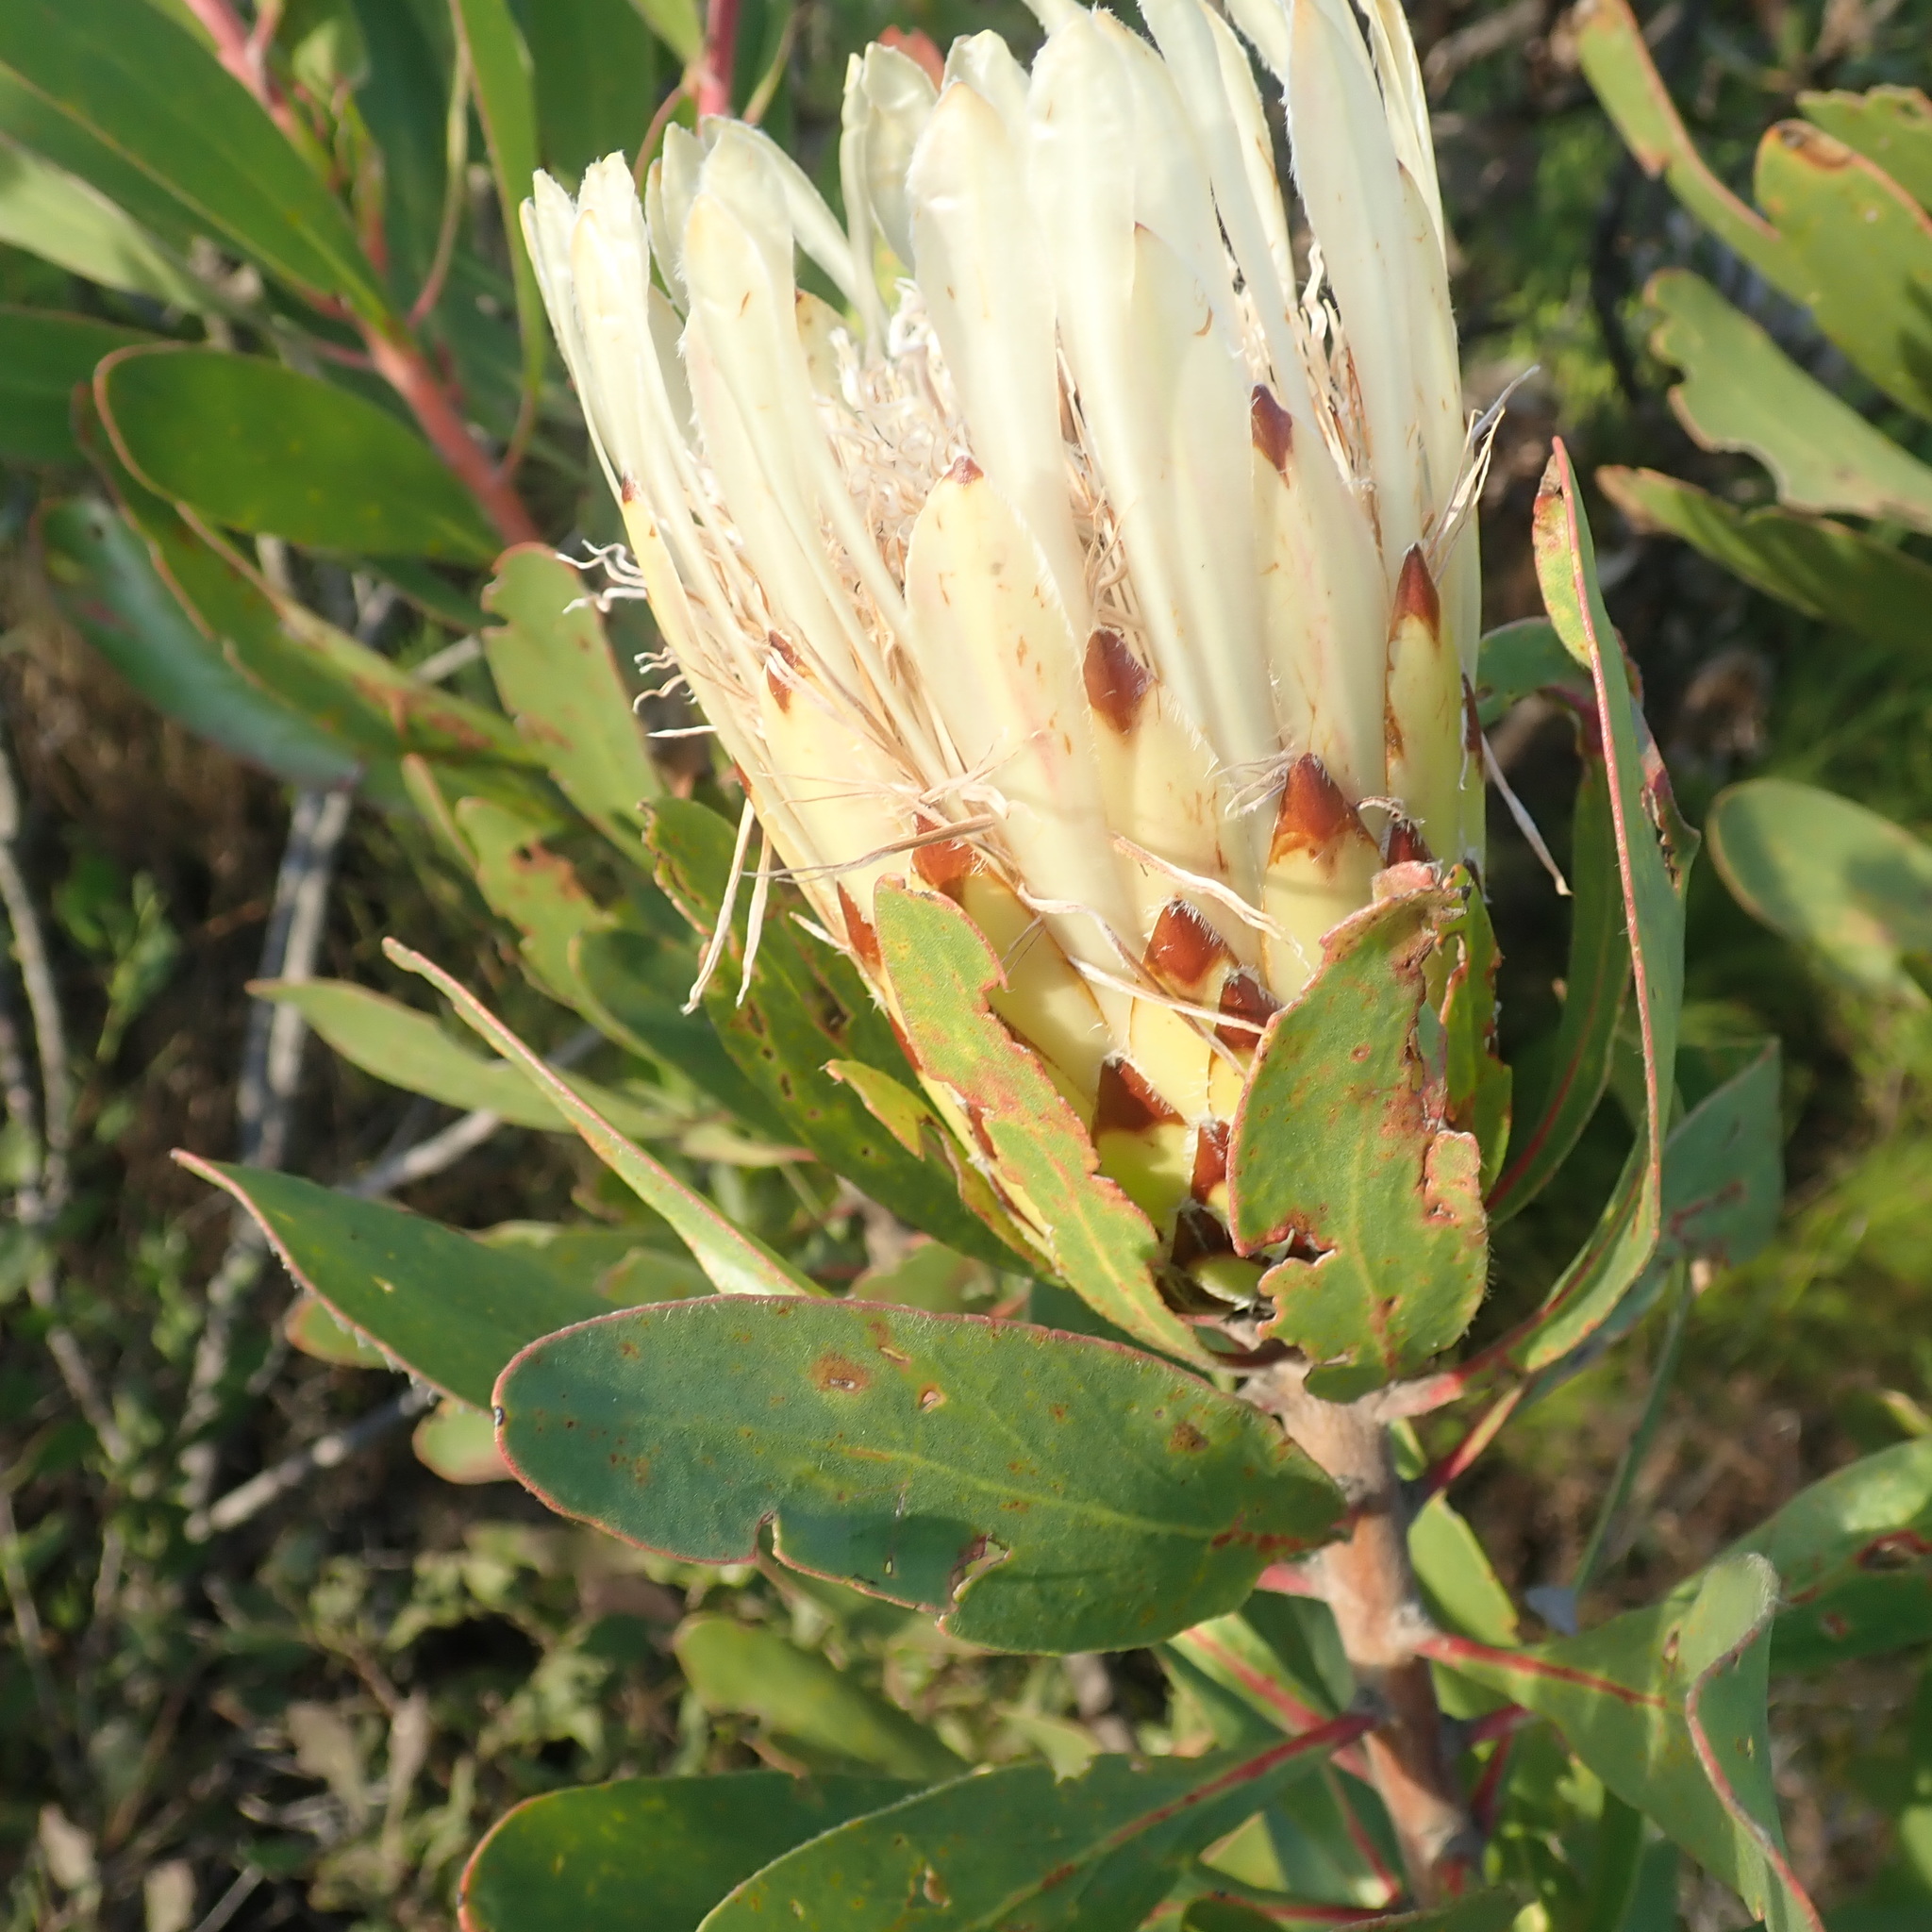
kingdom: Plantae
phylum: Tracheophyta
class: Magnoliopsida
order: Proteales
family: Proteaceae
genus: Protea
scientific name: Protea obtusifolia
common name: Bredasdorp sugarbush
